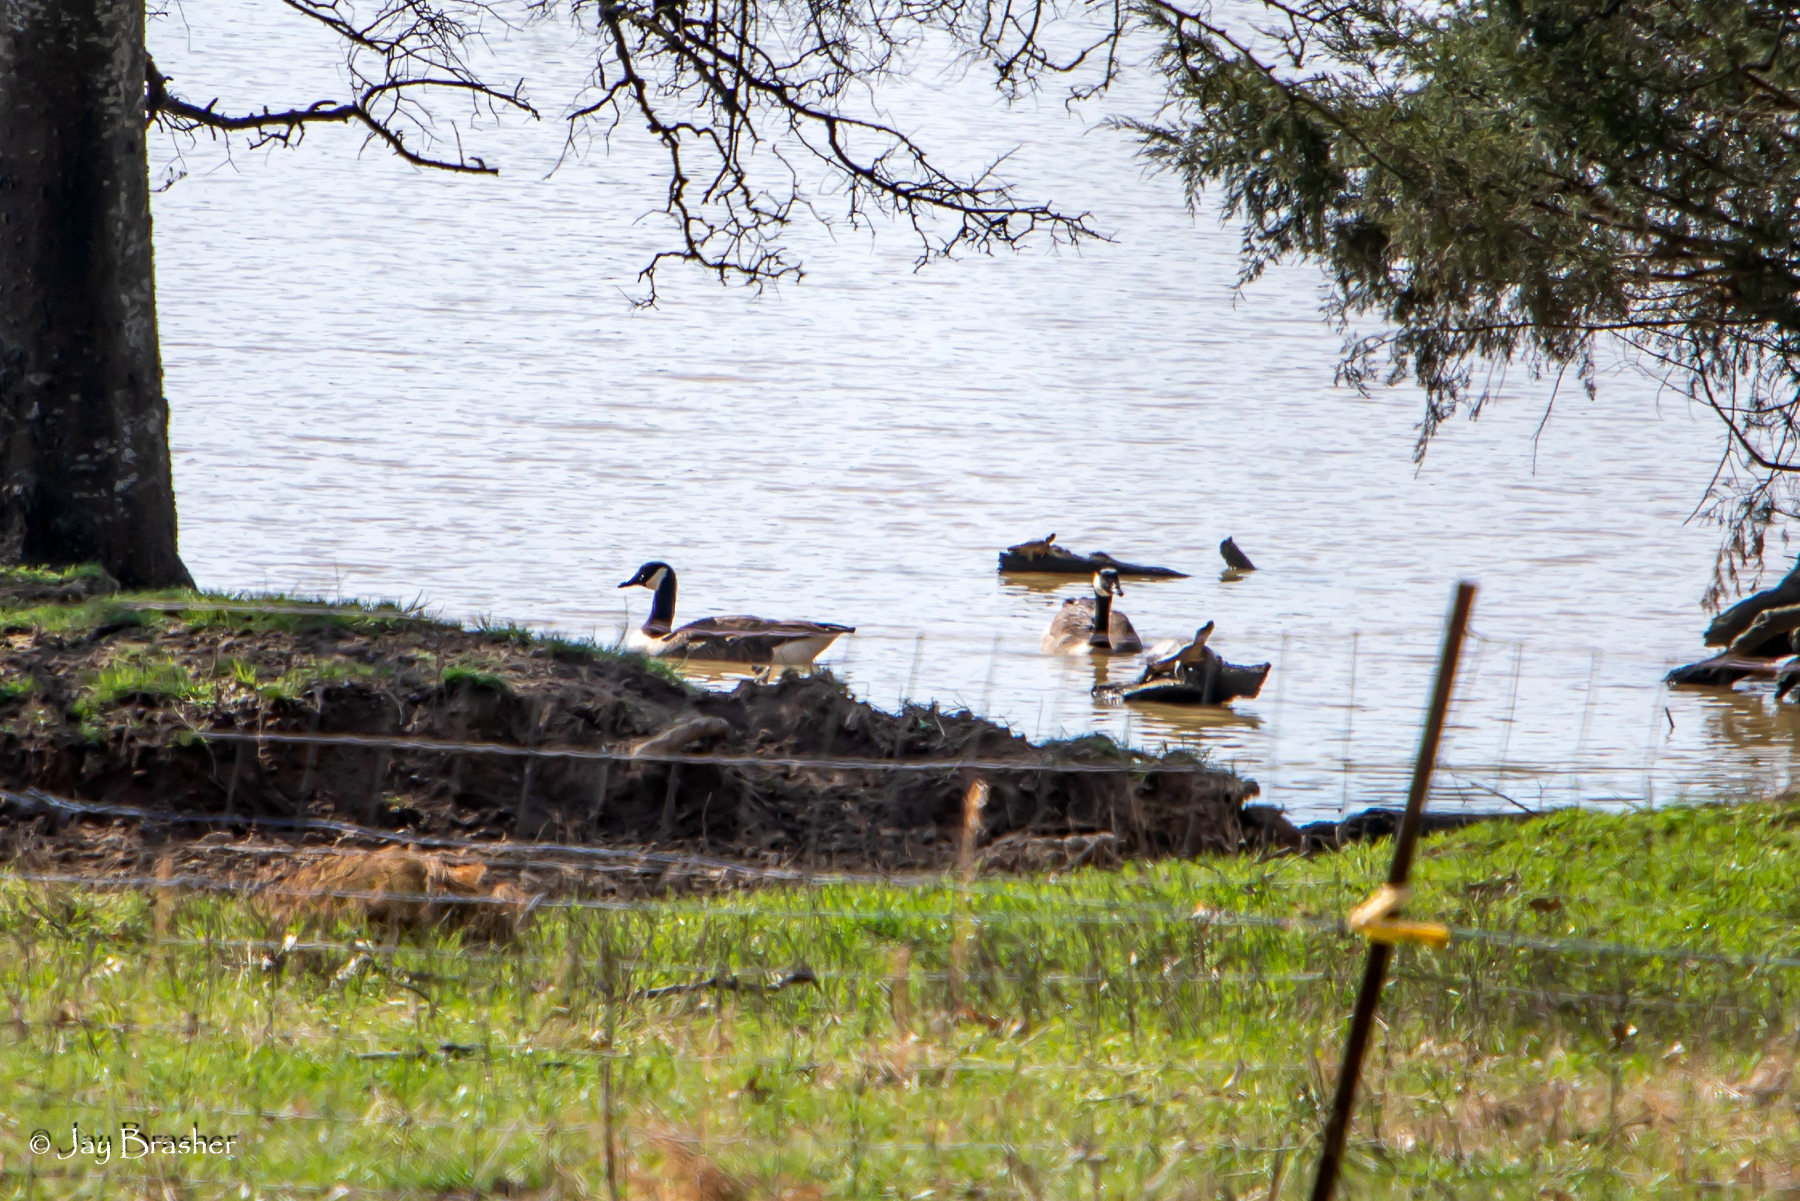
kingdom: Animalia
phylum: Chordata
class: Aves
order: Anseriformes
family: Anatidae
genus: Branta
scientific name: Branta canadensis
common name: Canada goose
